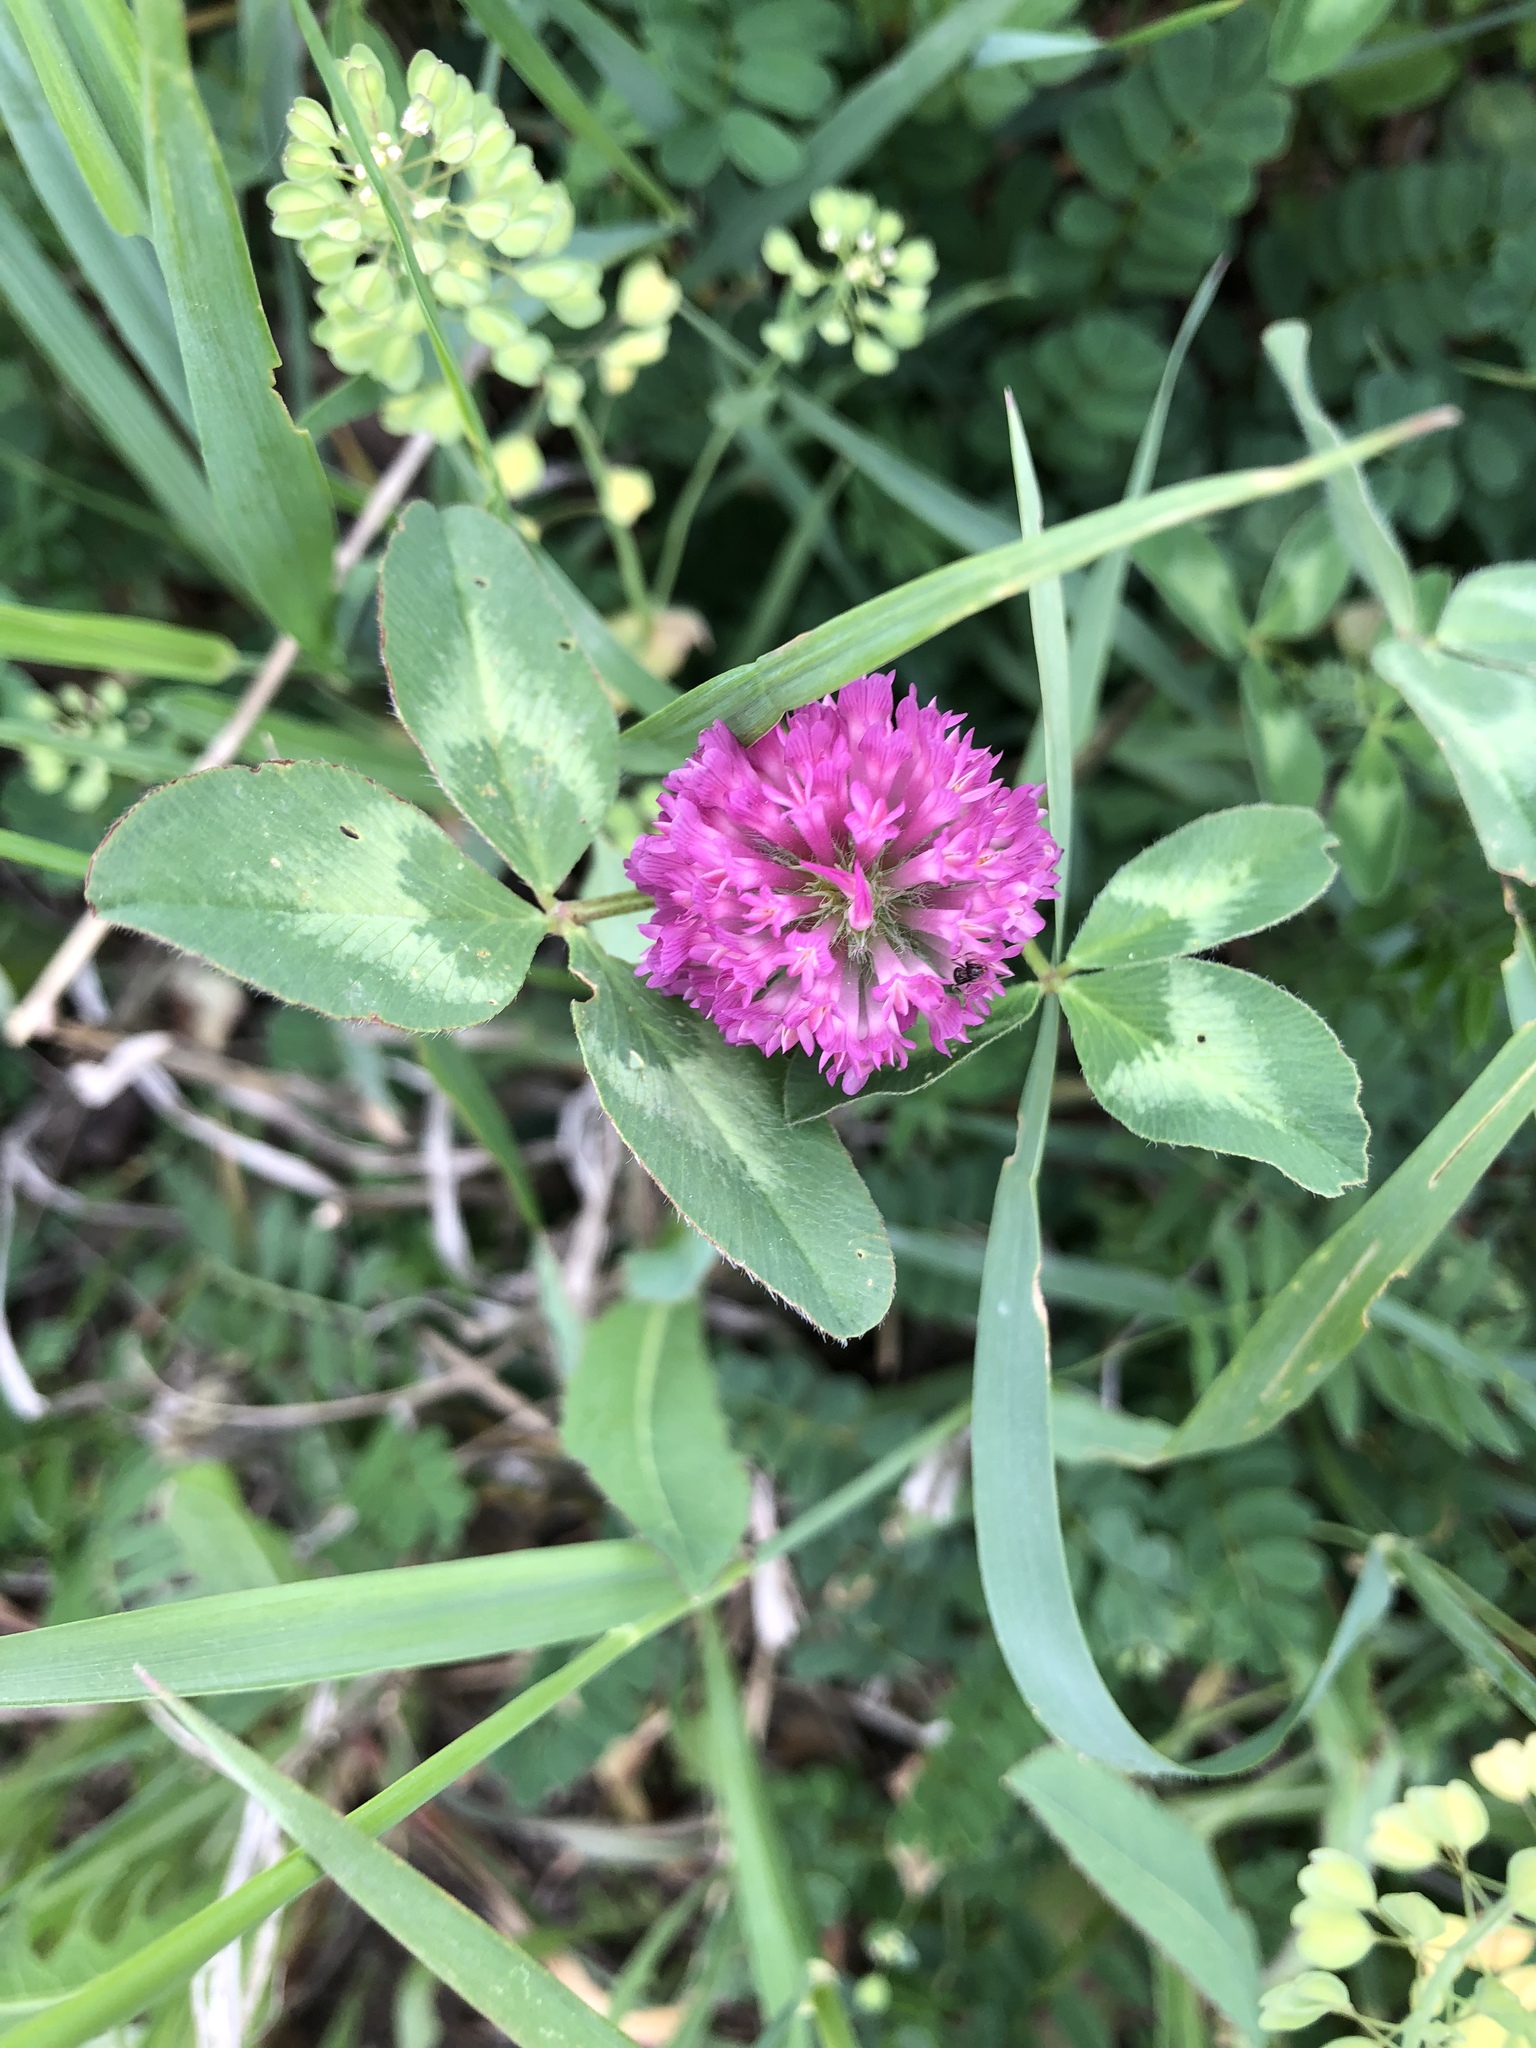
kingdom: Plantae
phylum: Tracheophyta
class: Magnoliopsida
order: Fabales
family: Fabaceae
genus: Trifolium
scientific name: Trifolium pratense
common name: Red clover
